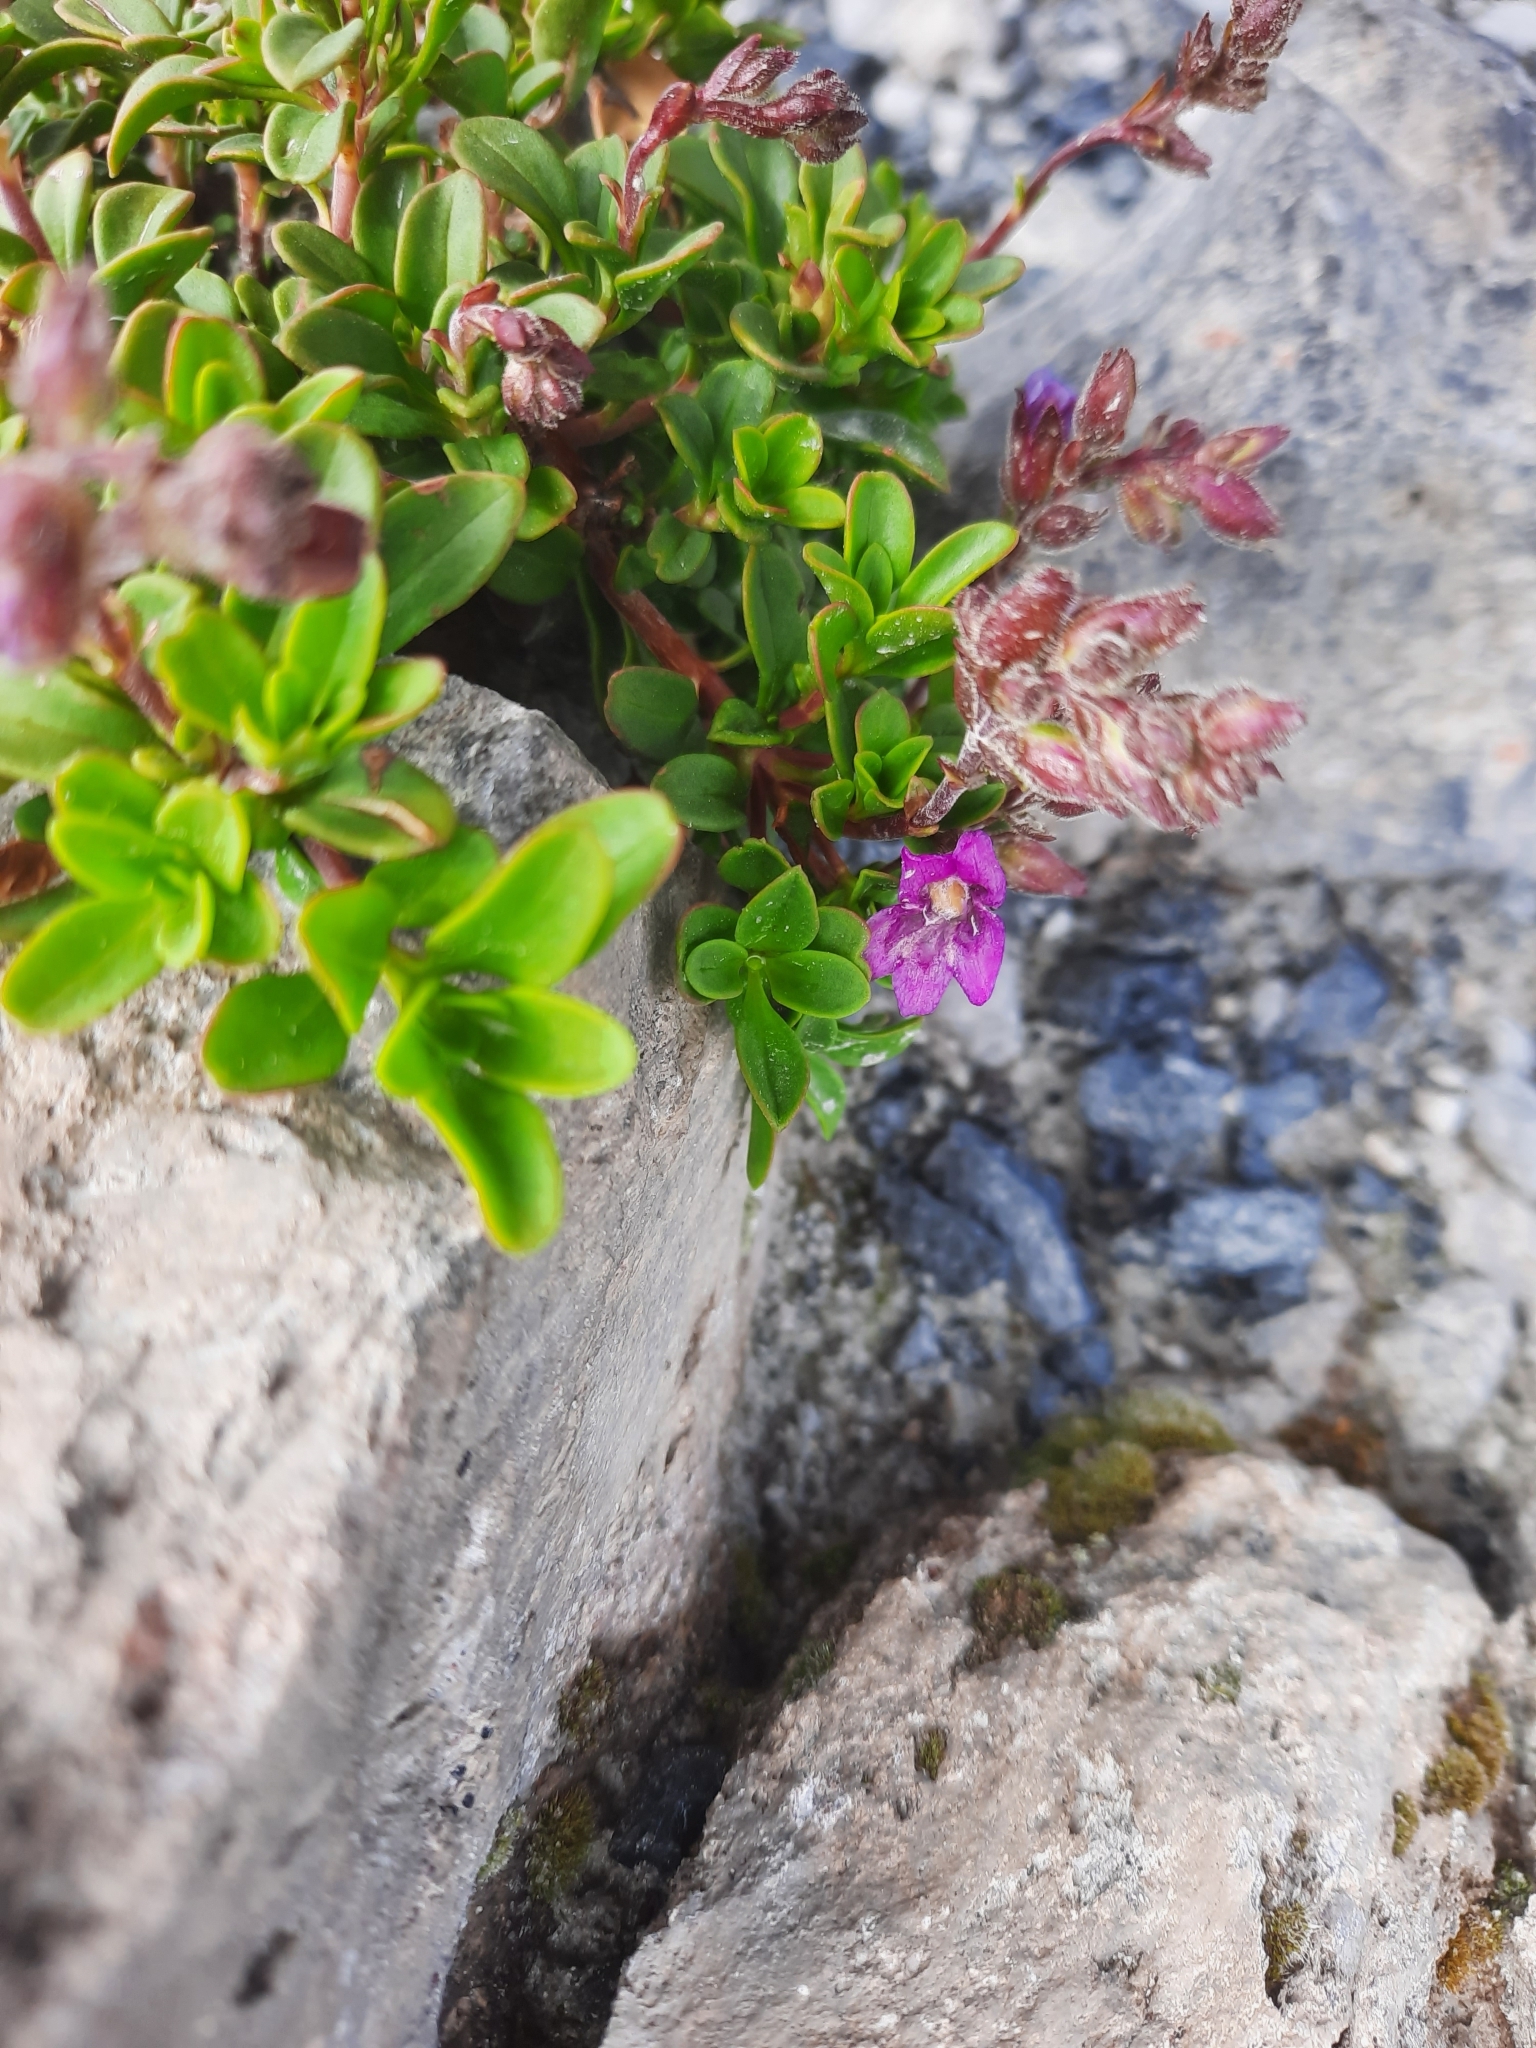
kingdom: Plantae
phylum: Tracheophyta
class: Magnoliopsida
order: Lamiales
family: Plantaginaceae
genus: Penstemon
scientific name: Penstemon davidsonii
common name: Davidson's penstemon
